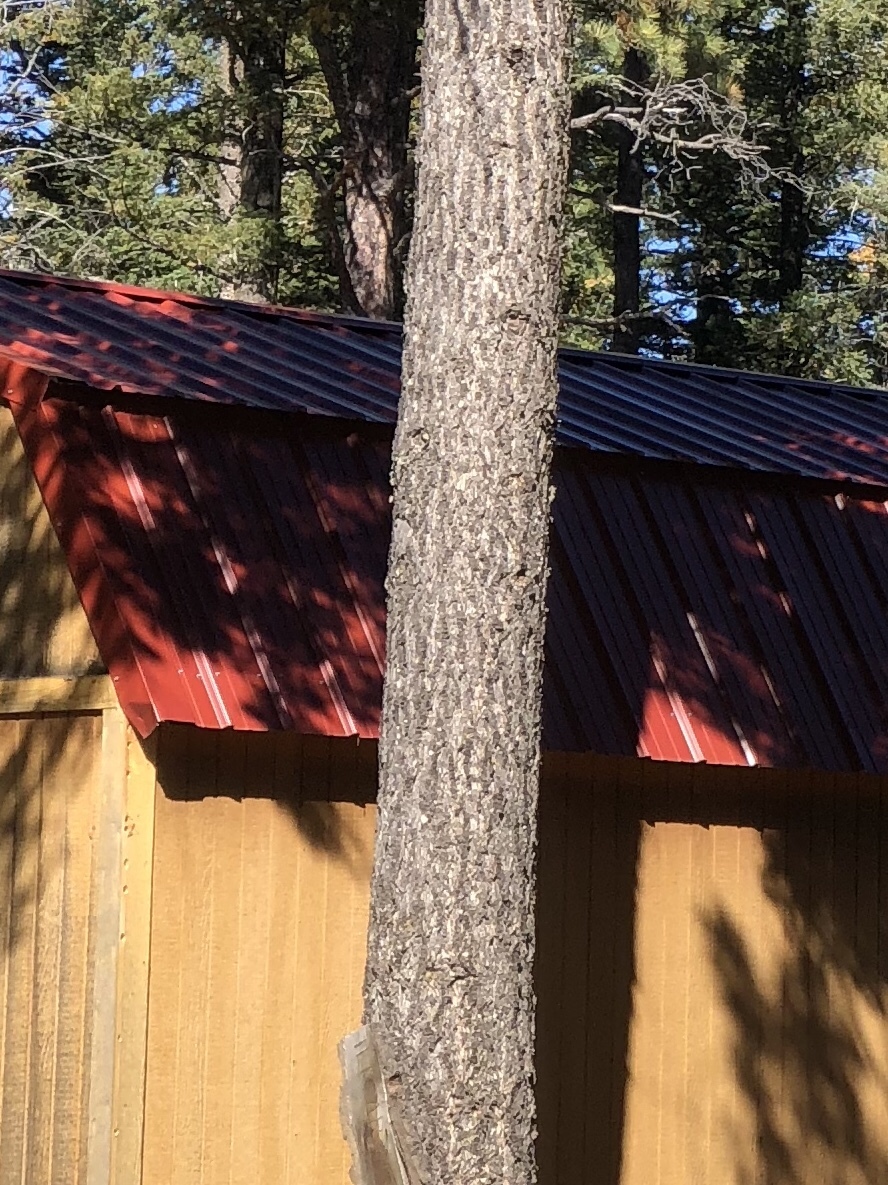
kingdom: Plantae
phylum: Tracheophyta
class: Pinopsida
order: Pinales
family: Pinaceae
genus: Pseudotsuga
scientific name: Pseudotsuga menziesii
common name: Douglas fir
